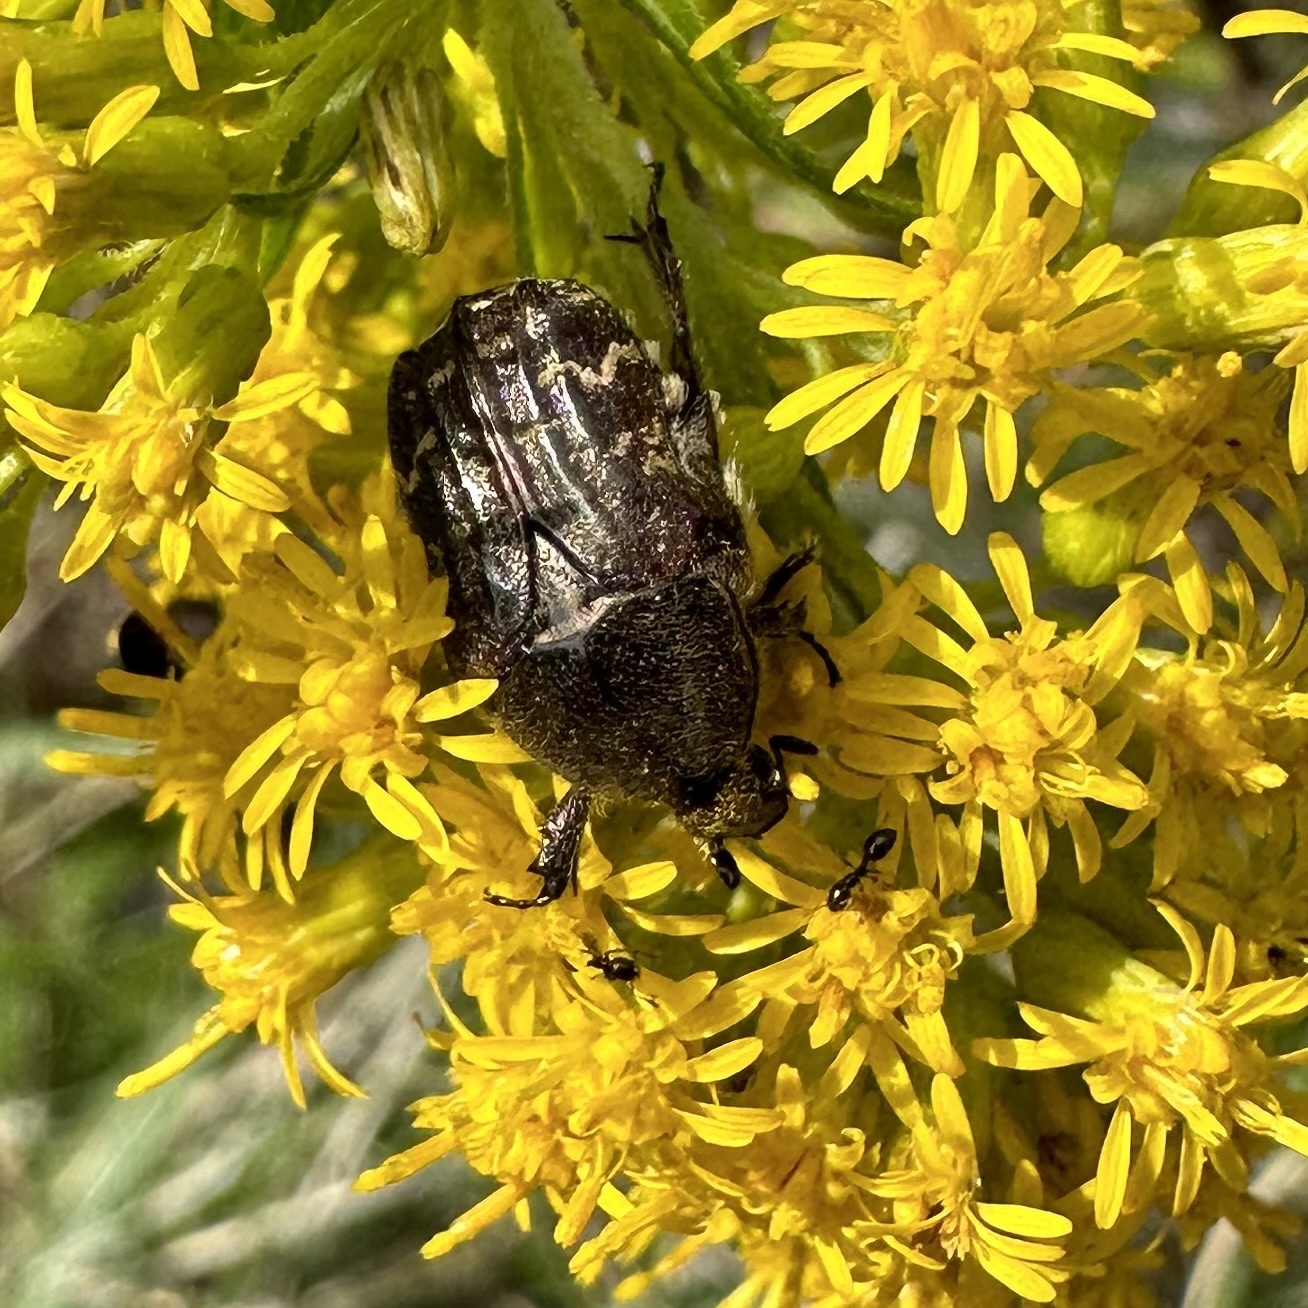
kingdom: Animalia
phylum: Arthropoda
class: Insecta
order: Coleoptera
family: Scarabaeidae
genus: Euphoria
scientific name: Euphoria sepulcralis
